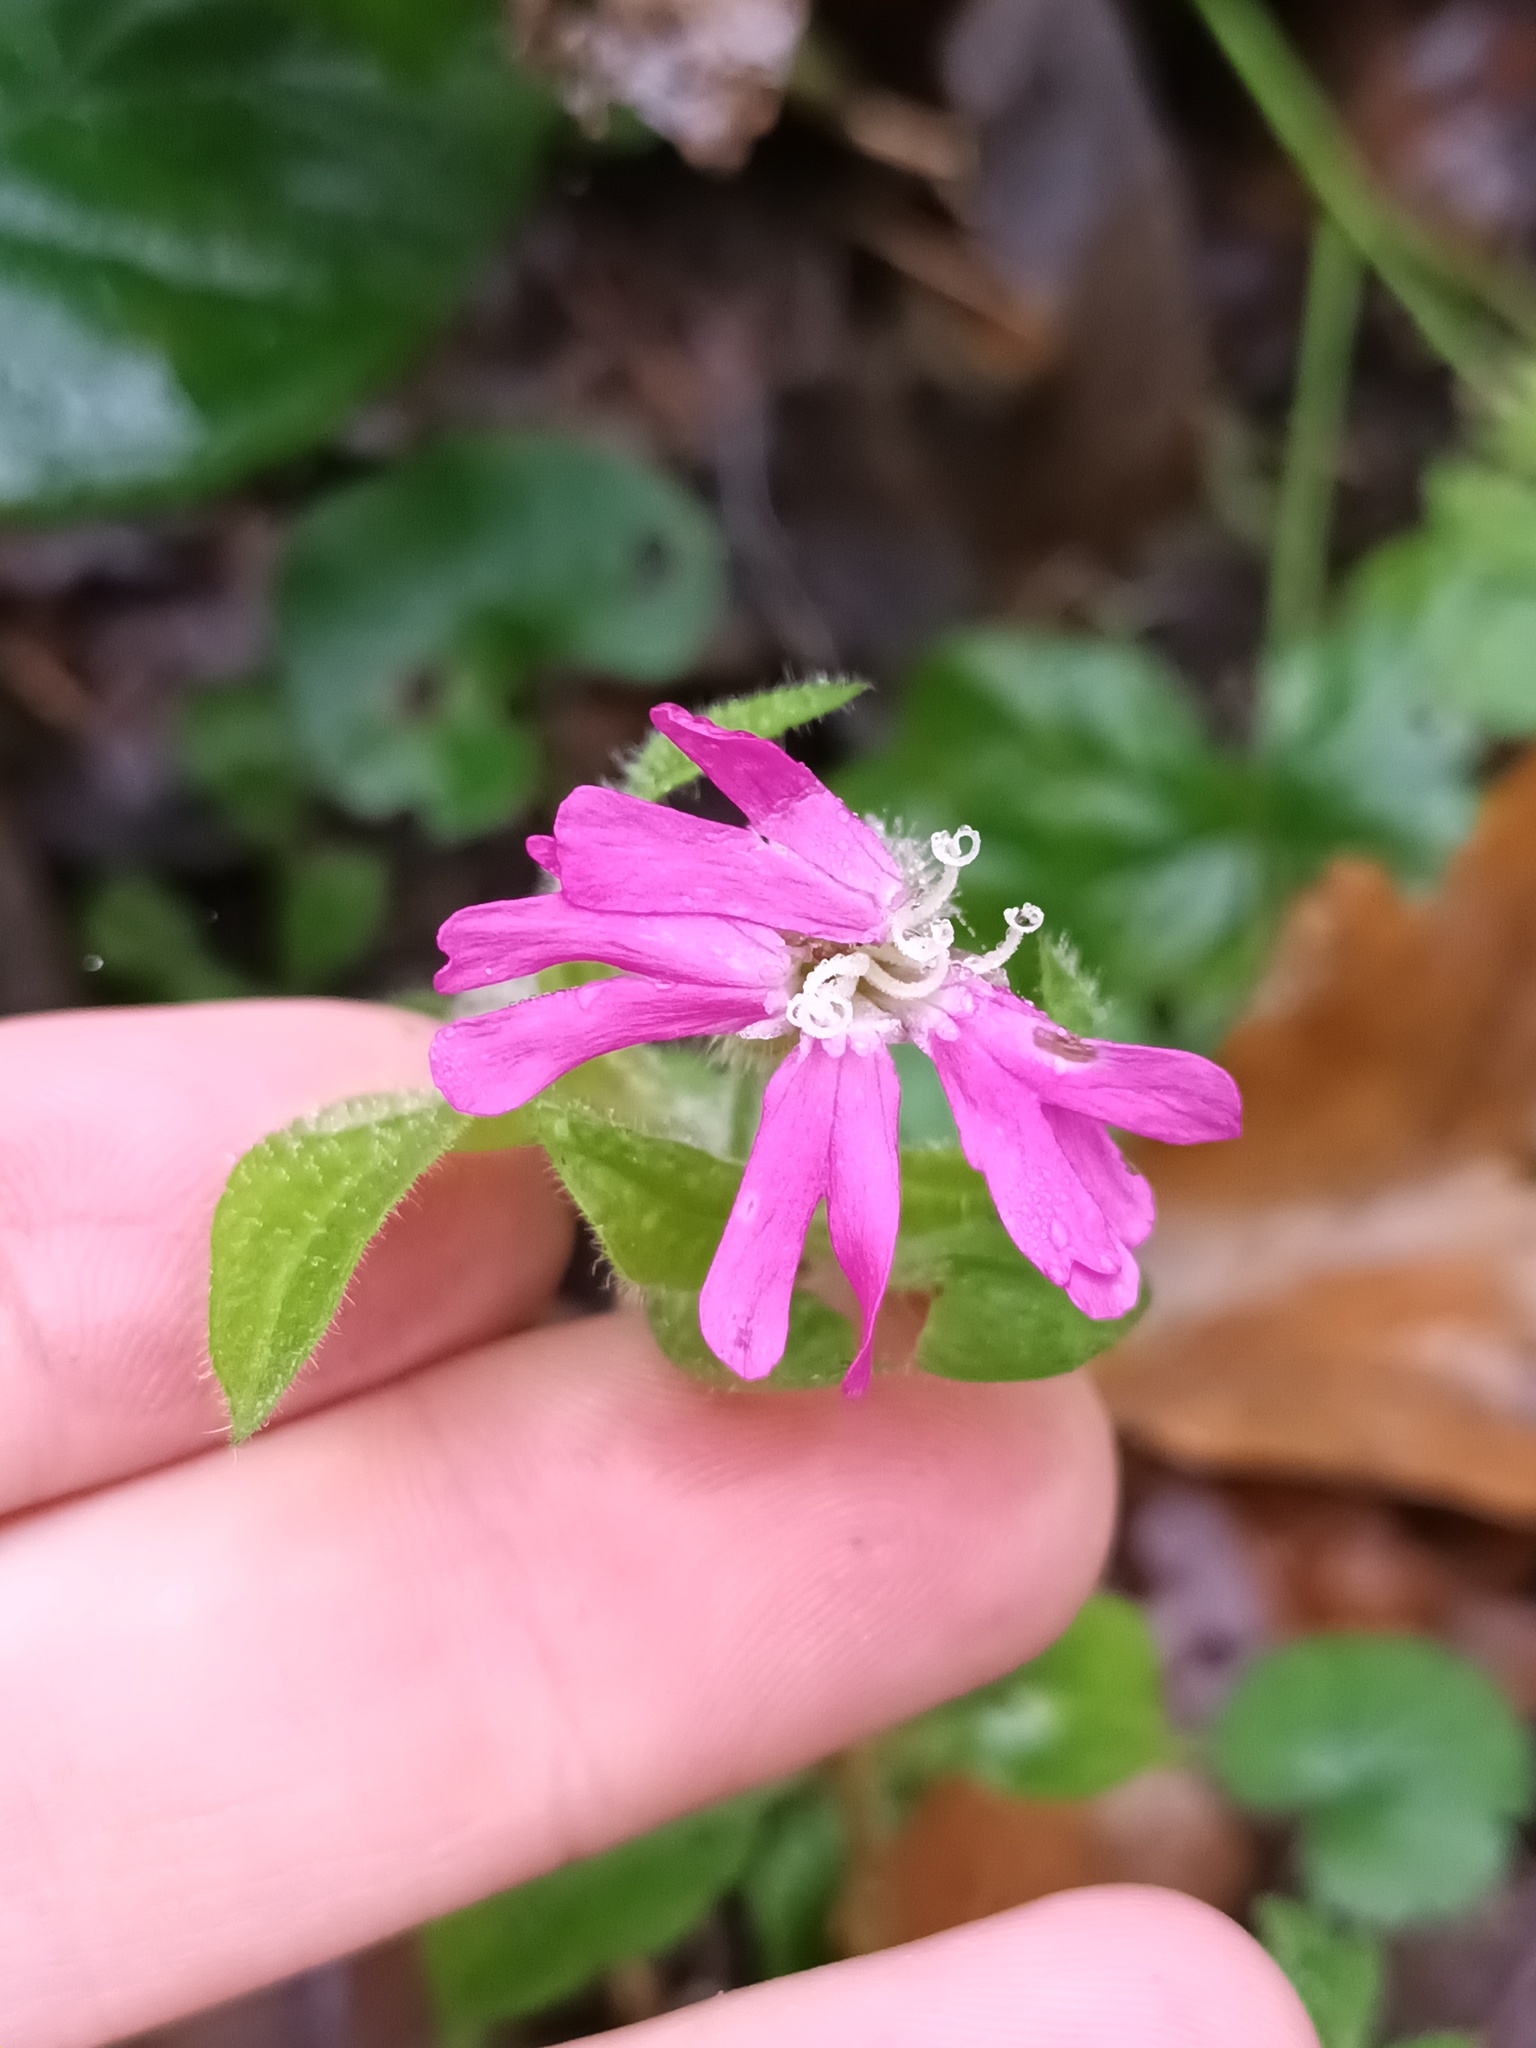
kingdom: Plantae
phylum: Tracheophyta
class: Magnoliopsida
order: Caryophyllales
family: Caryophyllaceae
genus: Silene
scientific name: Silene dioica
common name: Red campion
